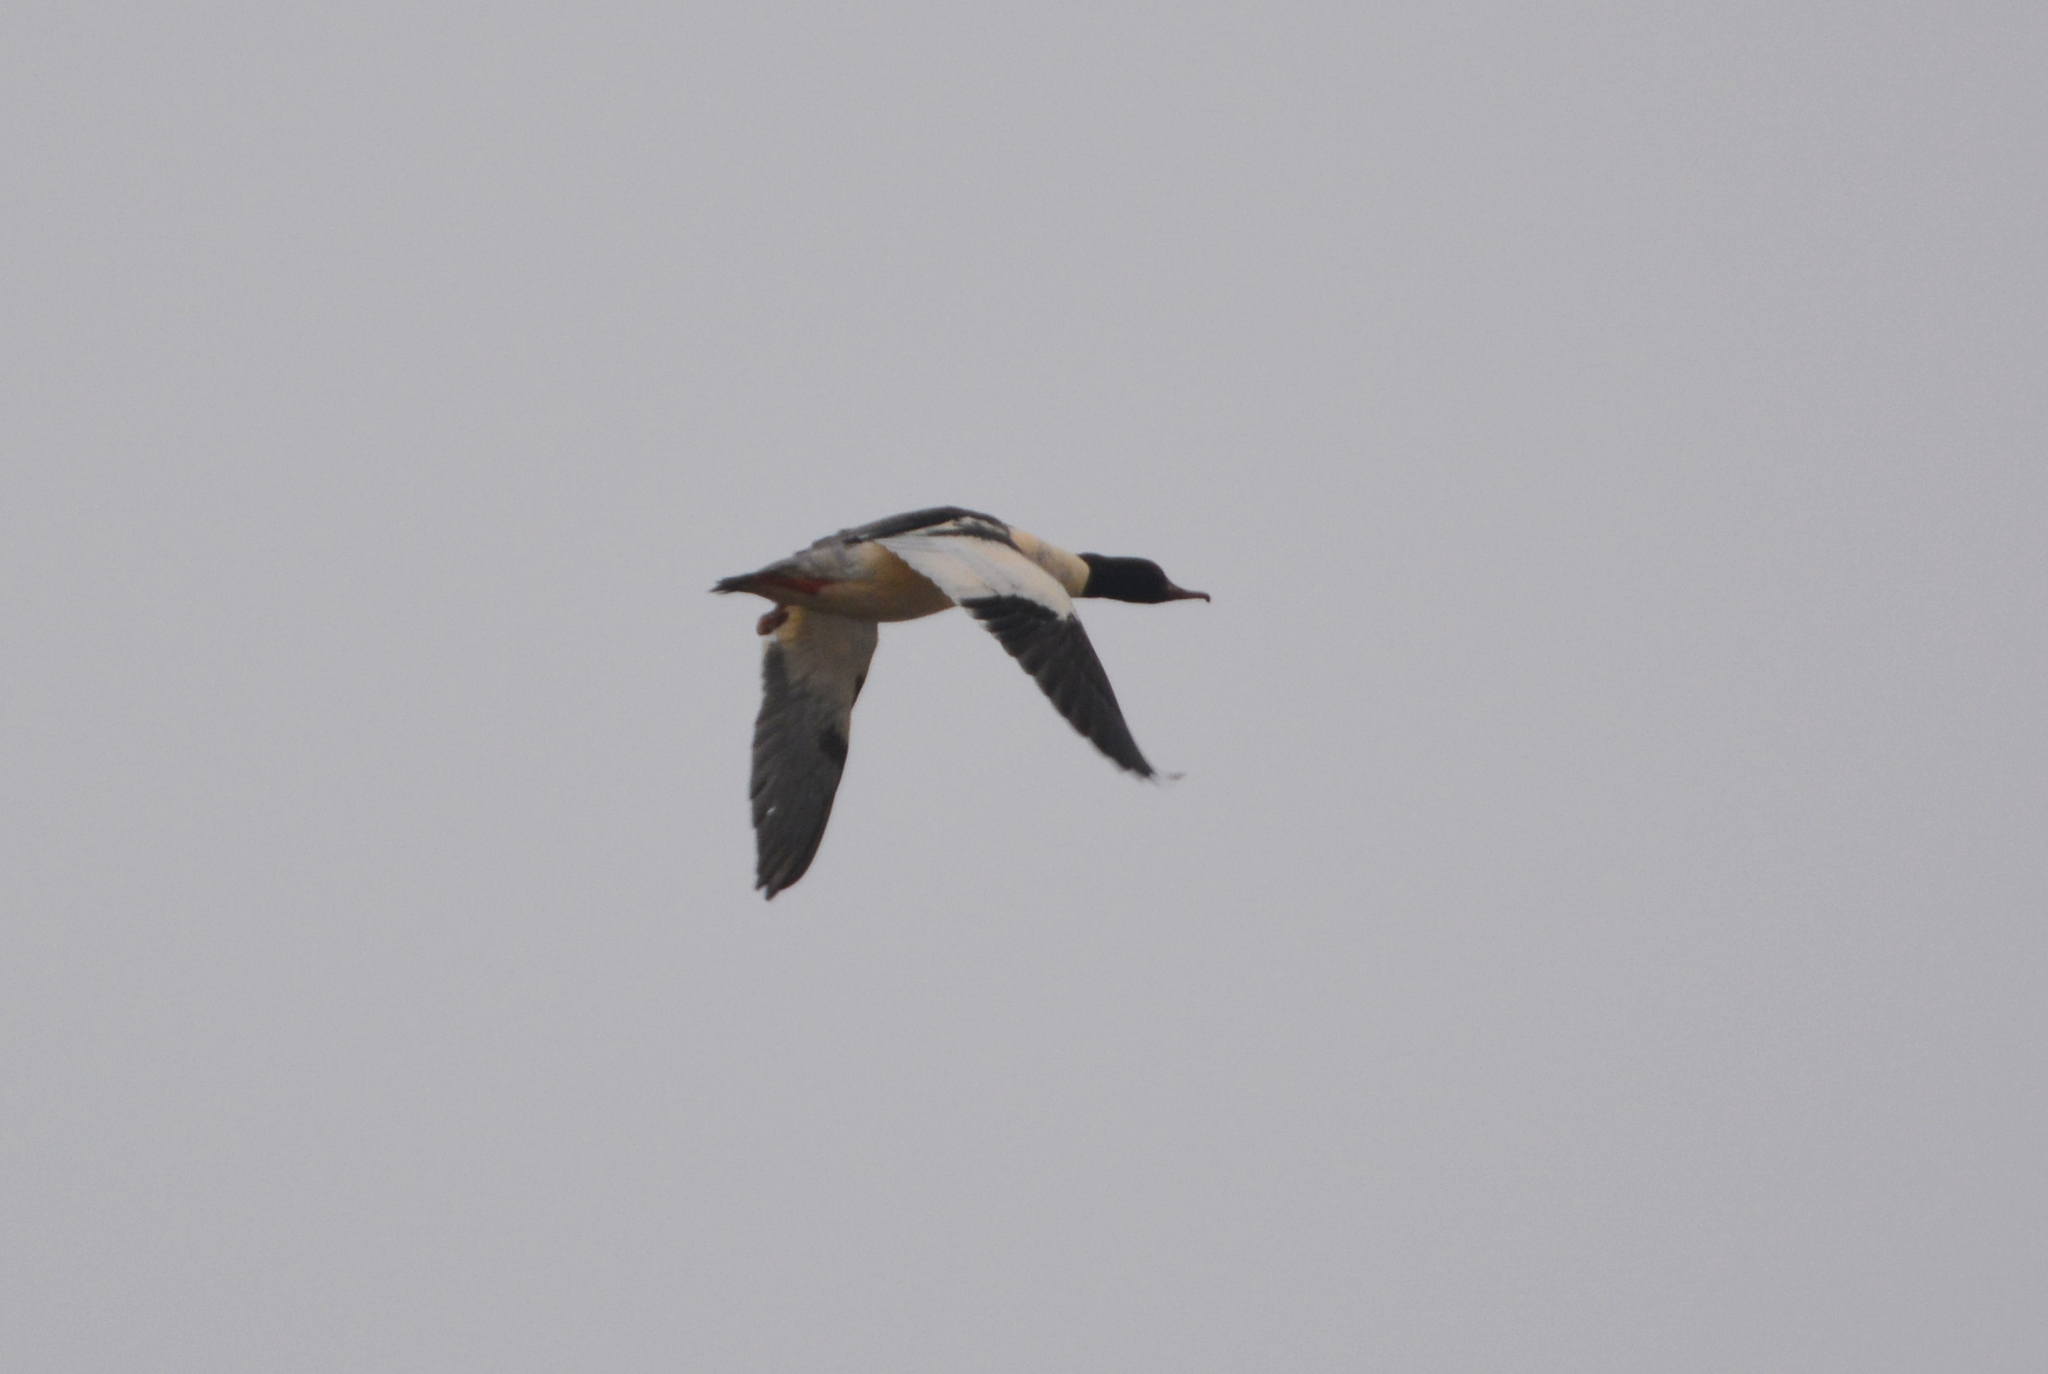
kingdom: Animalia
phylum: Chordata
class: Aves
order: Anseriformes
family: Anatidae
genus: Mergus
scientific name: Mergus merganser
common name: Common merganser
